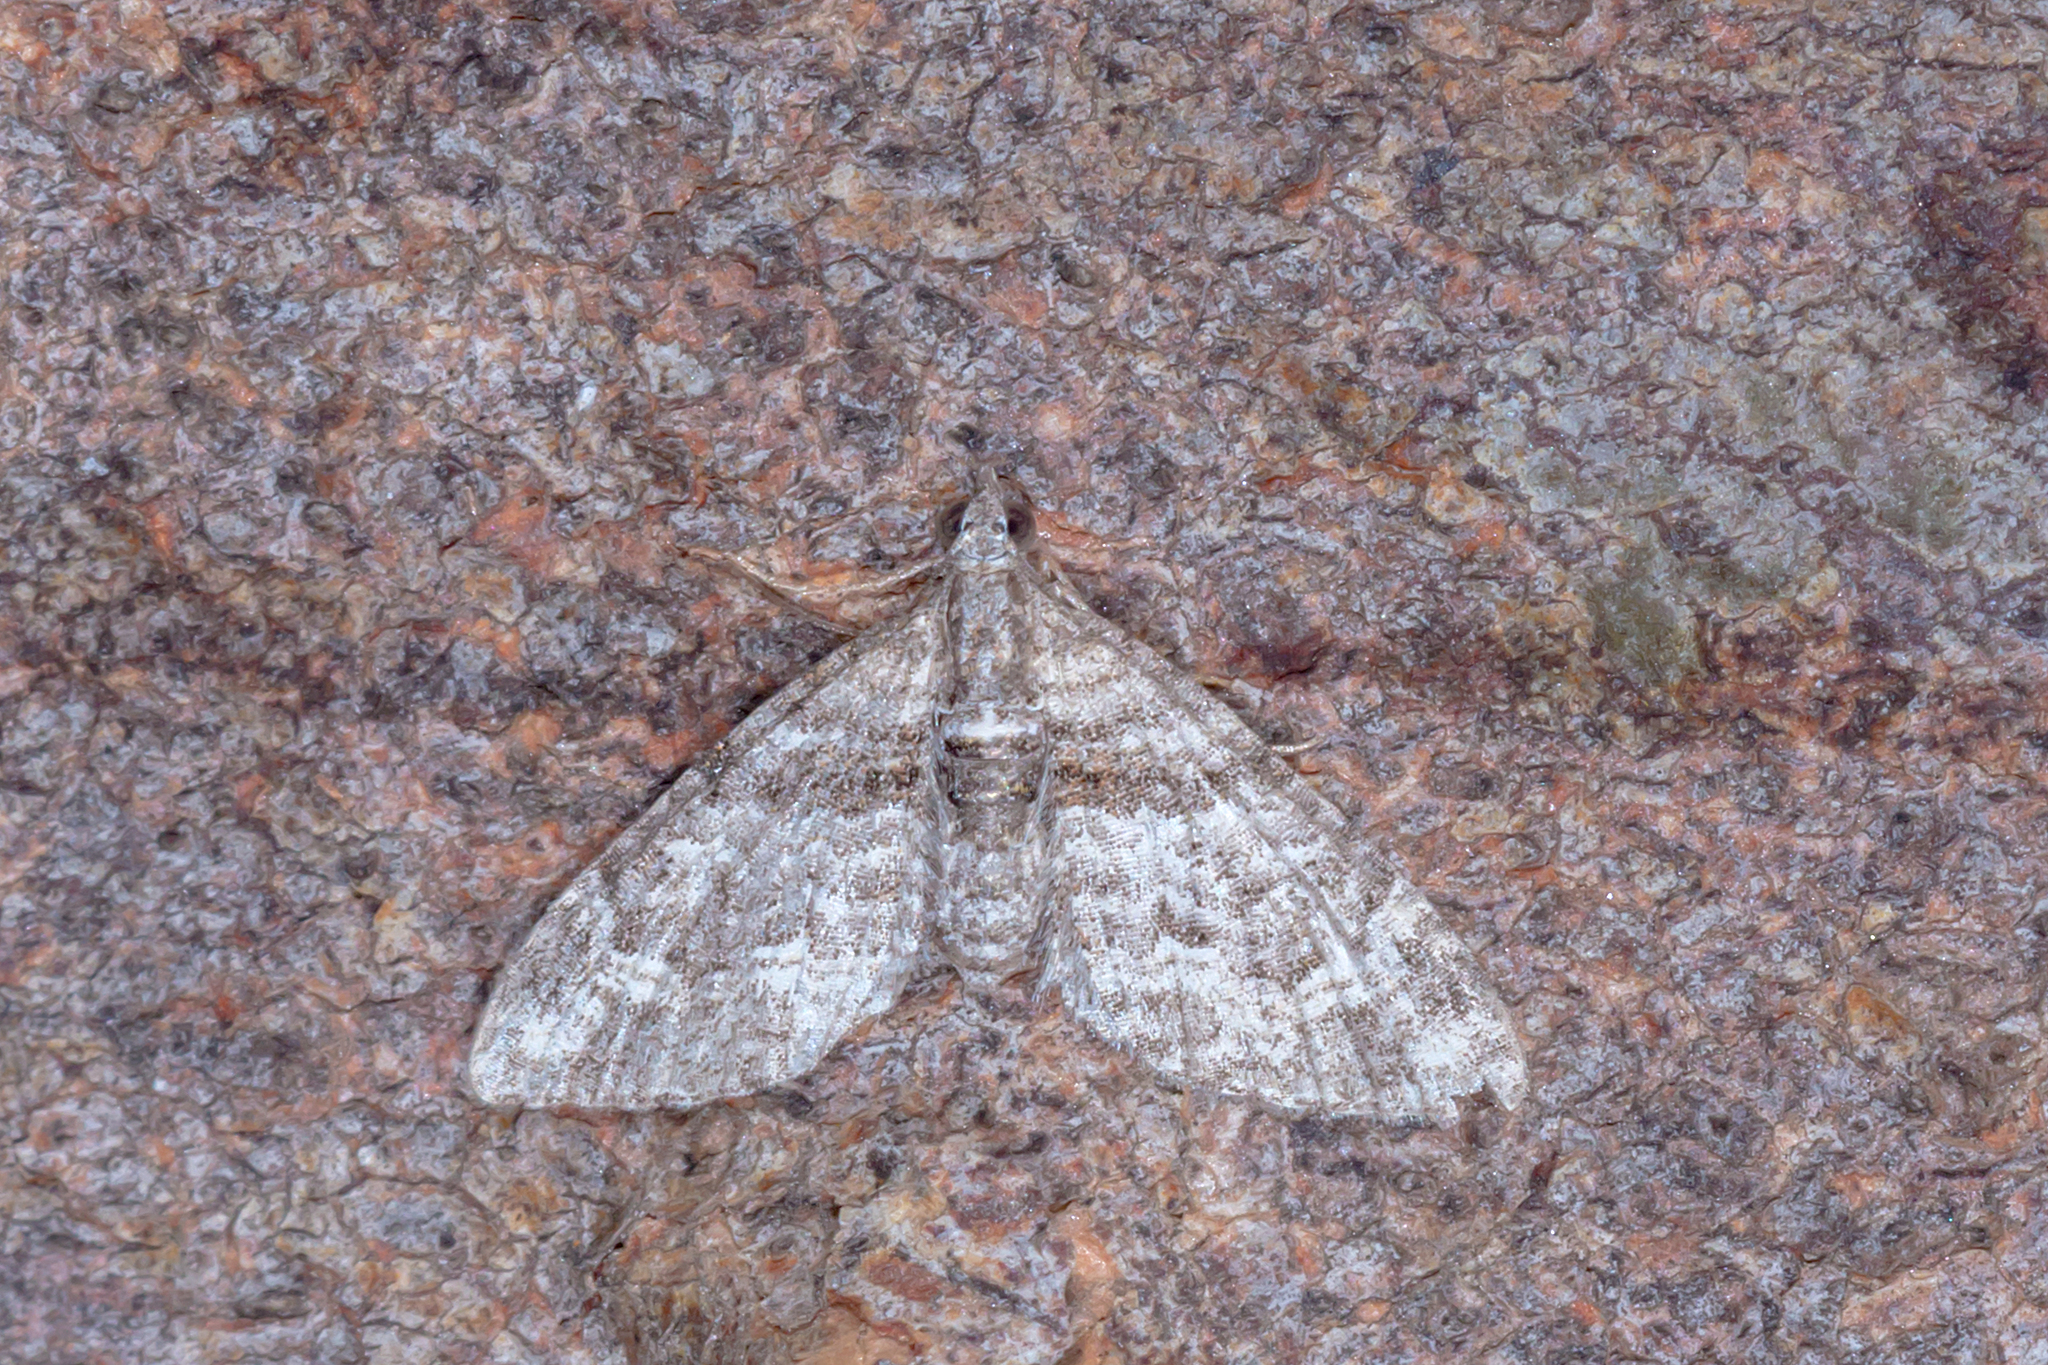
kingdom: Animalia
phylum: Arthropoda
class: Insecta
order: Lepidoptera
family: Geometridae
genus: Phrissogonus
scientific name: Phrissogonus laticostata
